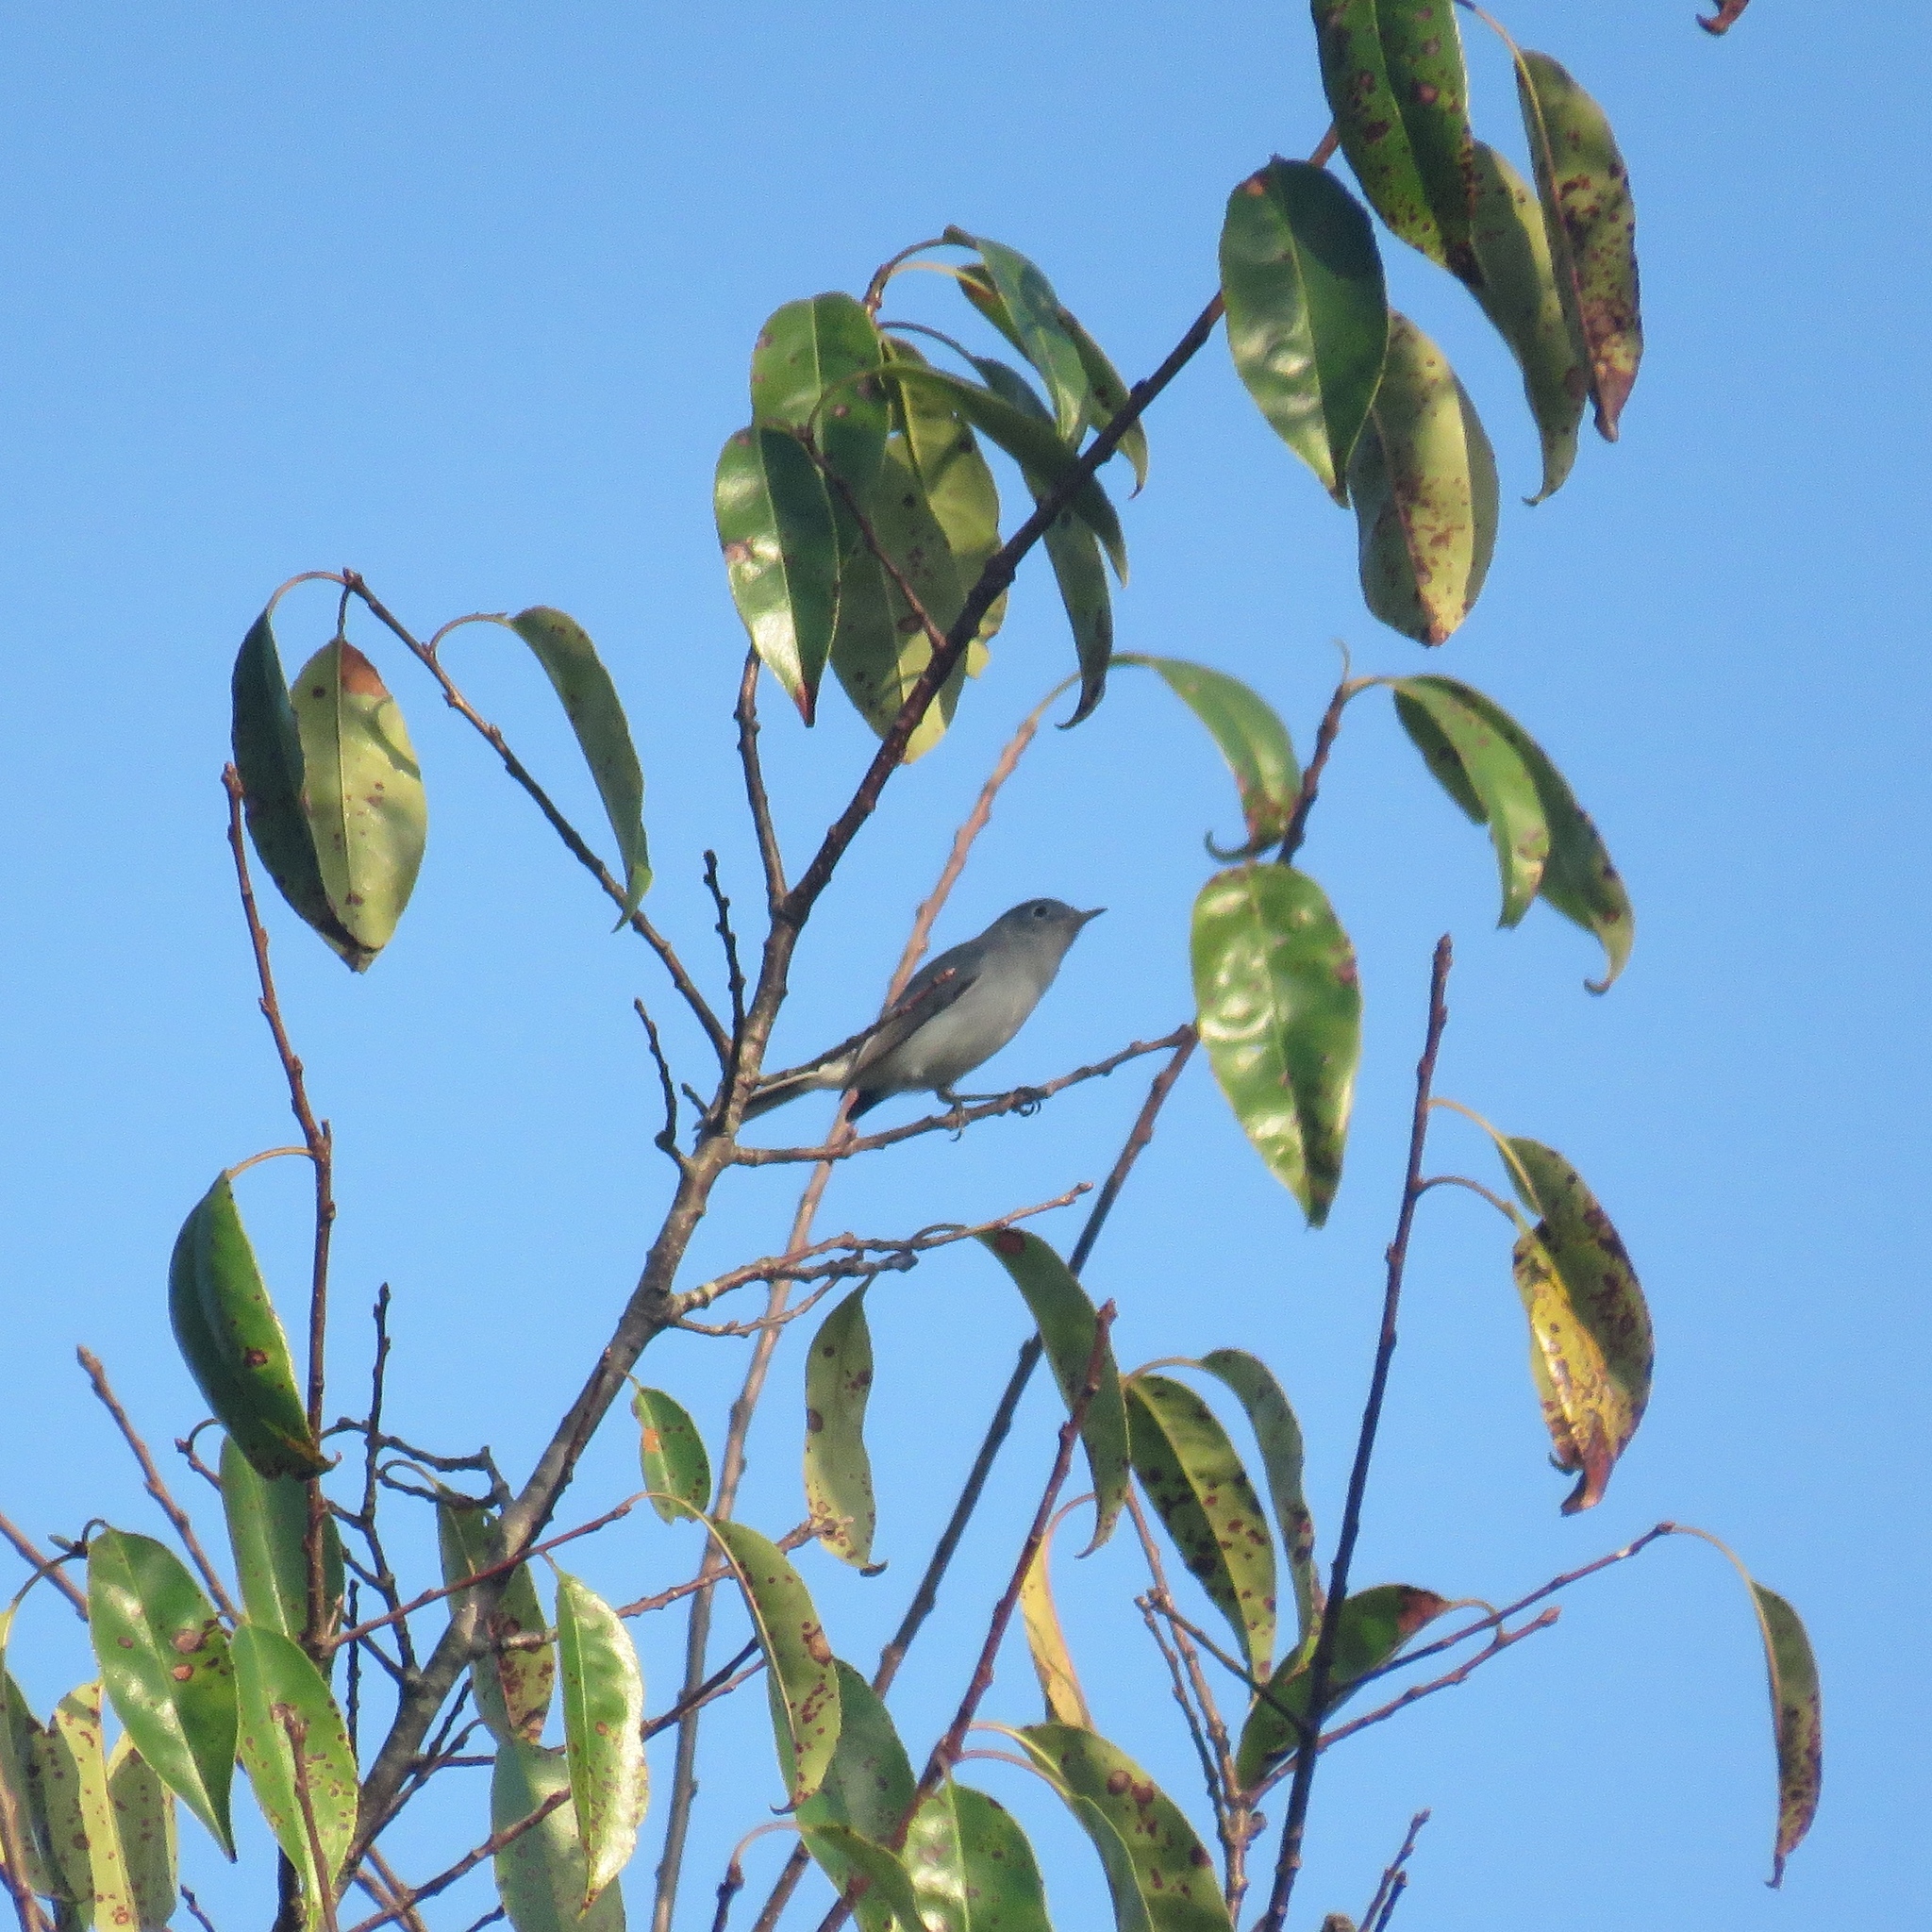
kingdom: Animalia
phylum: Chordata
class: Aves
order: Passeriformes
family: Polioptilidae
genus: Polioptila
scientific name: Polioptila caerulea
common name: Blue-gray gnatcatcher
